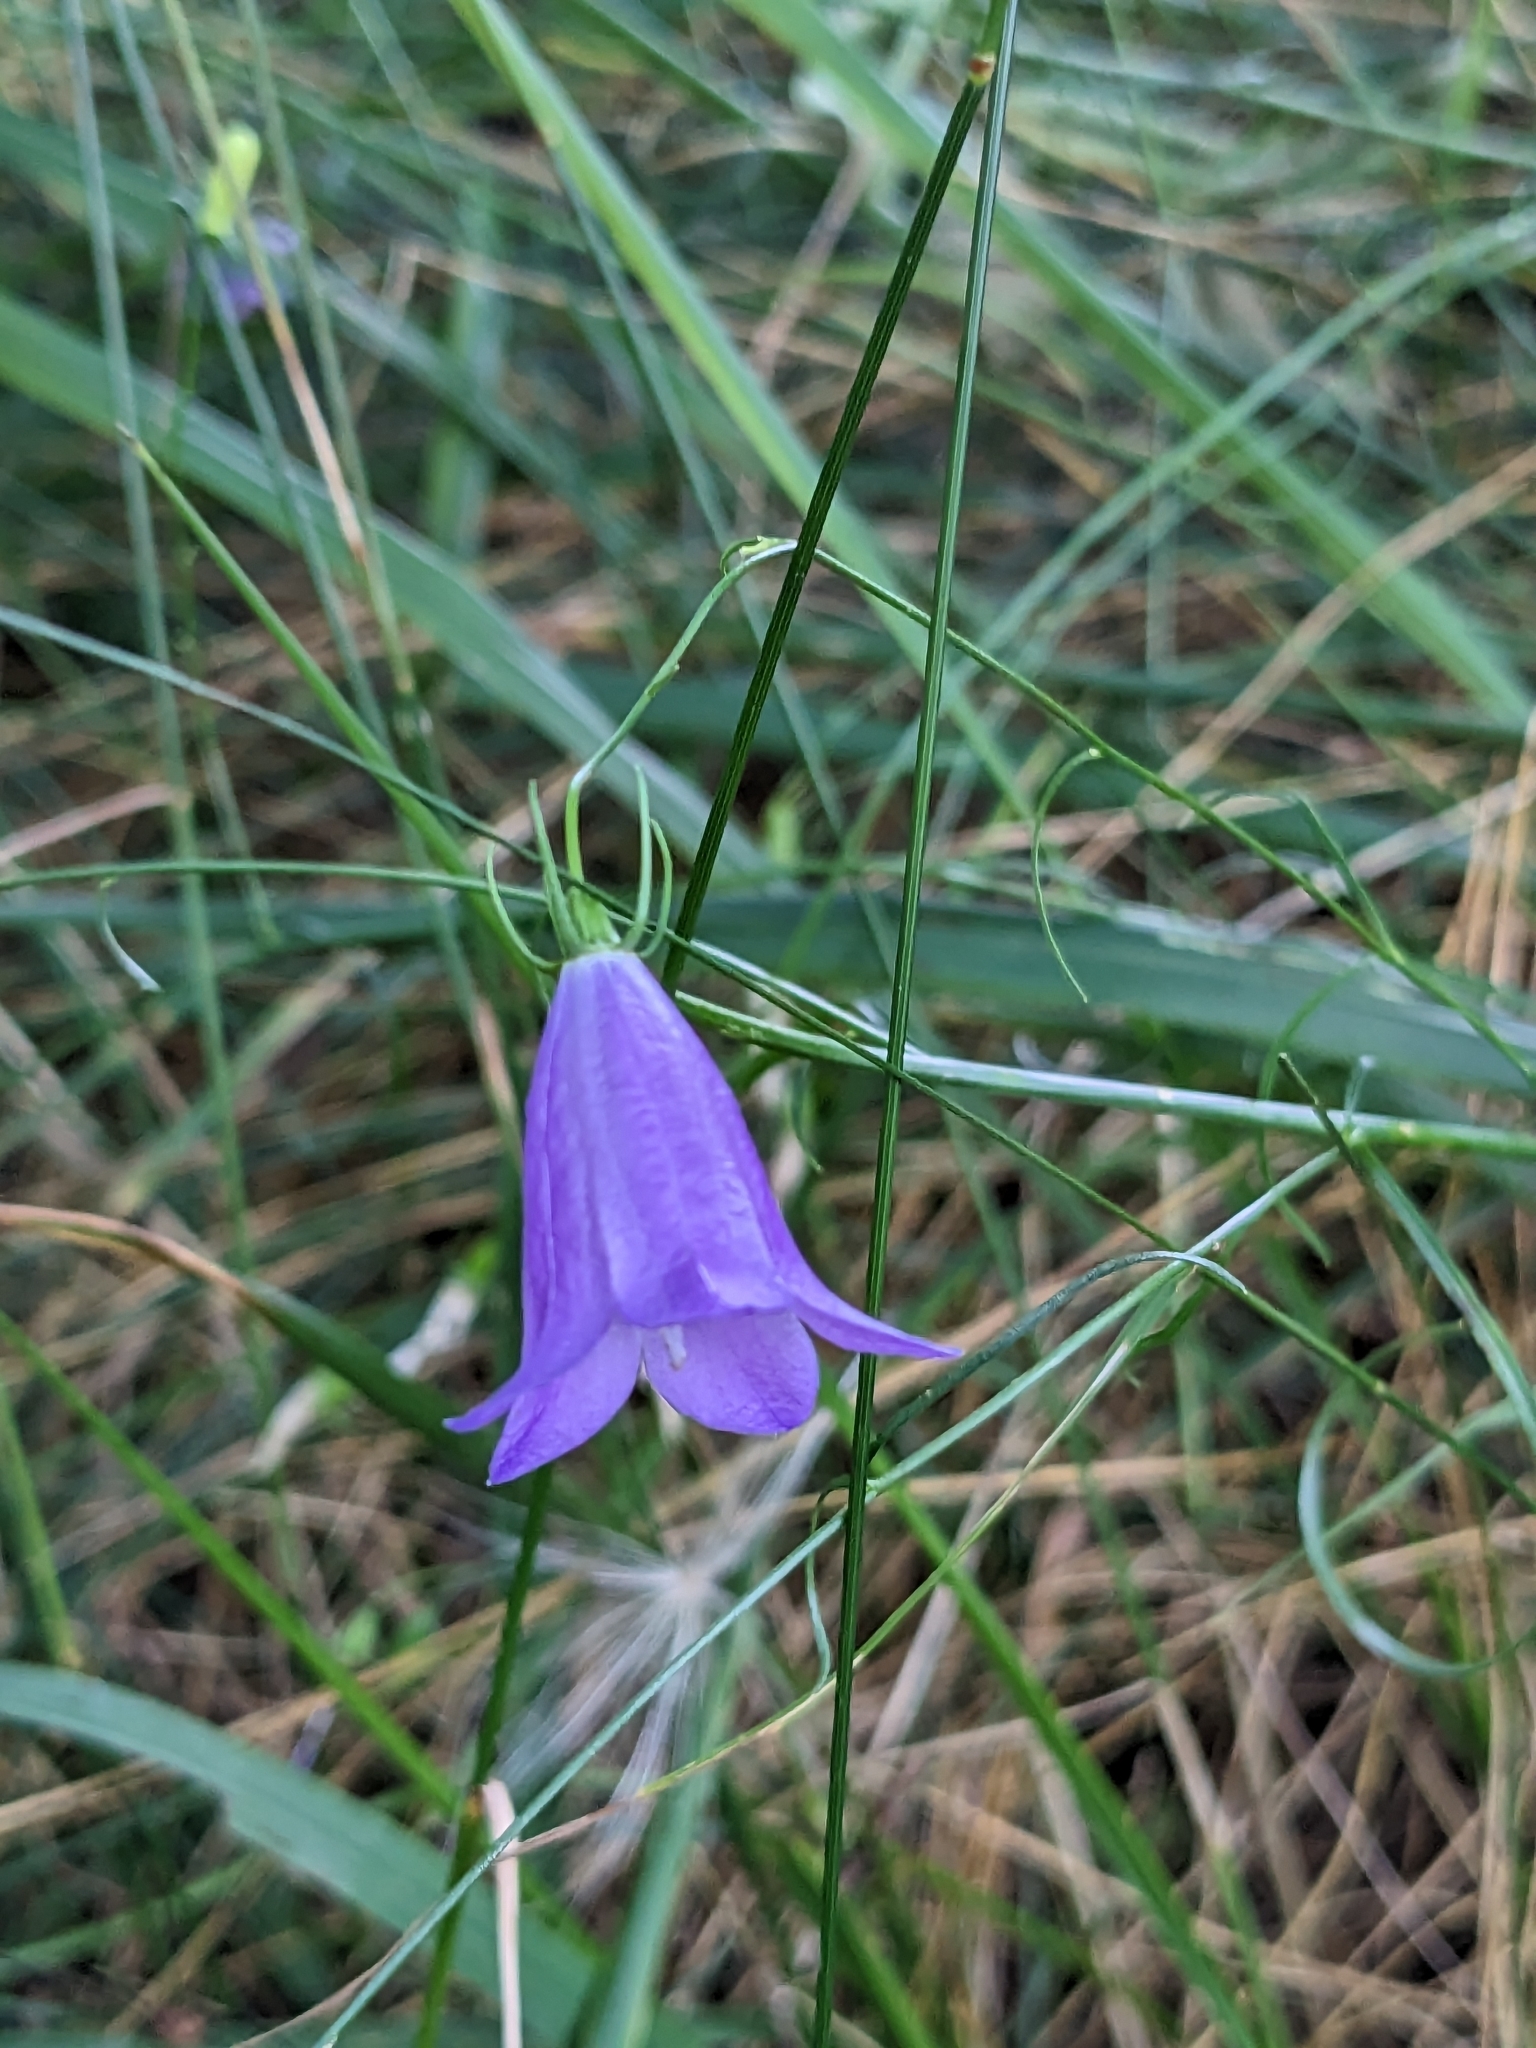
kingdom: Plantae
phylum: Tracheophyta
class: Magnoliopsida
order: Asterales
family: Campanulaceae
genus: Campanula
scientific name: Campanula rotundifolia
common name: Harebell
